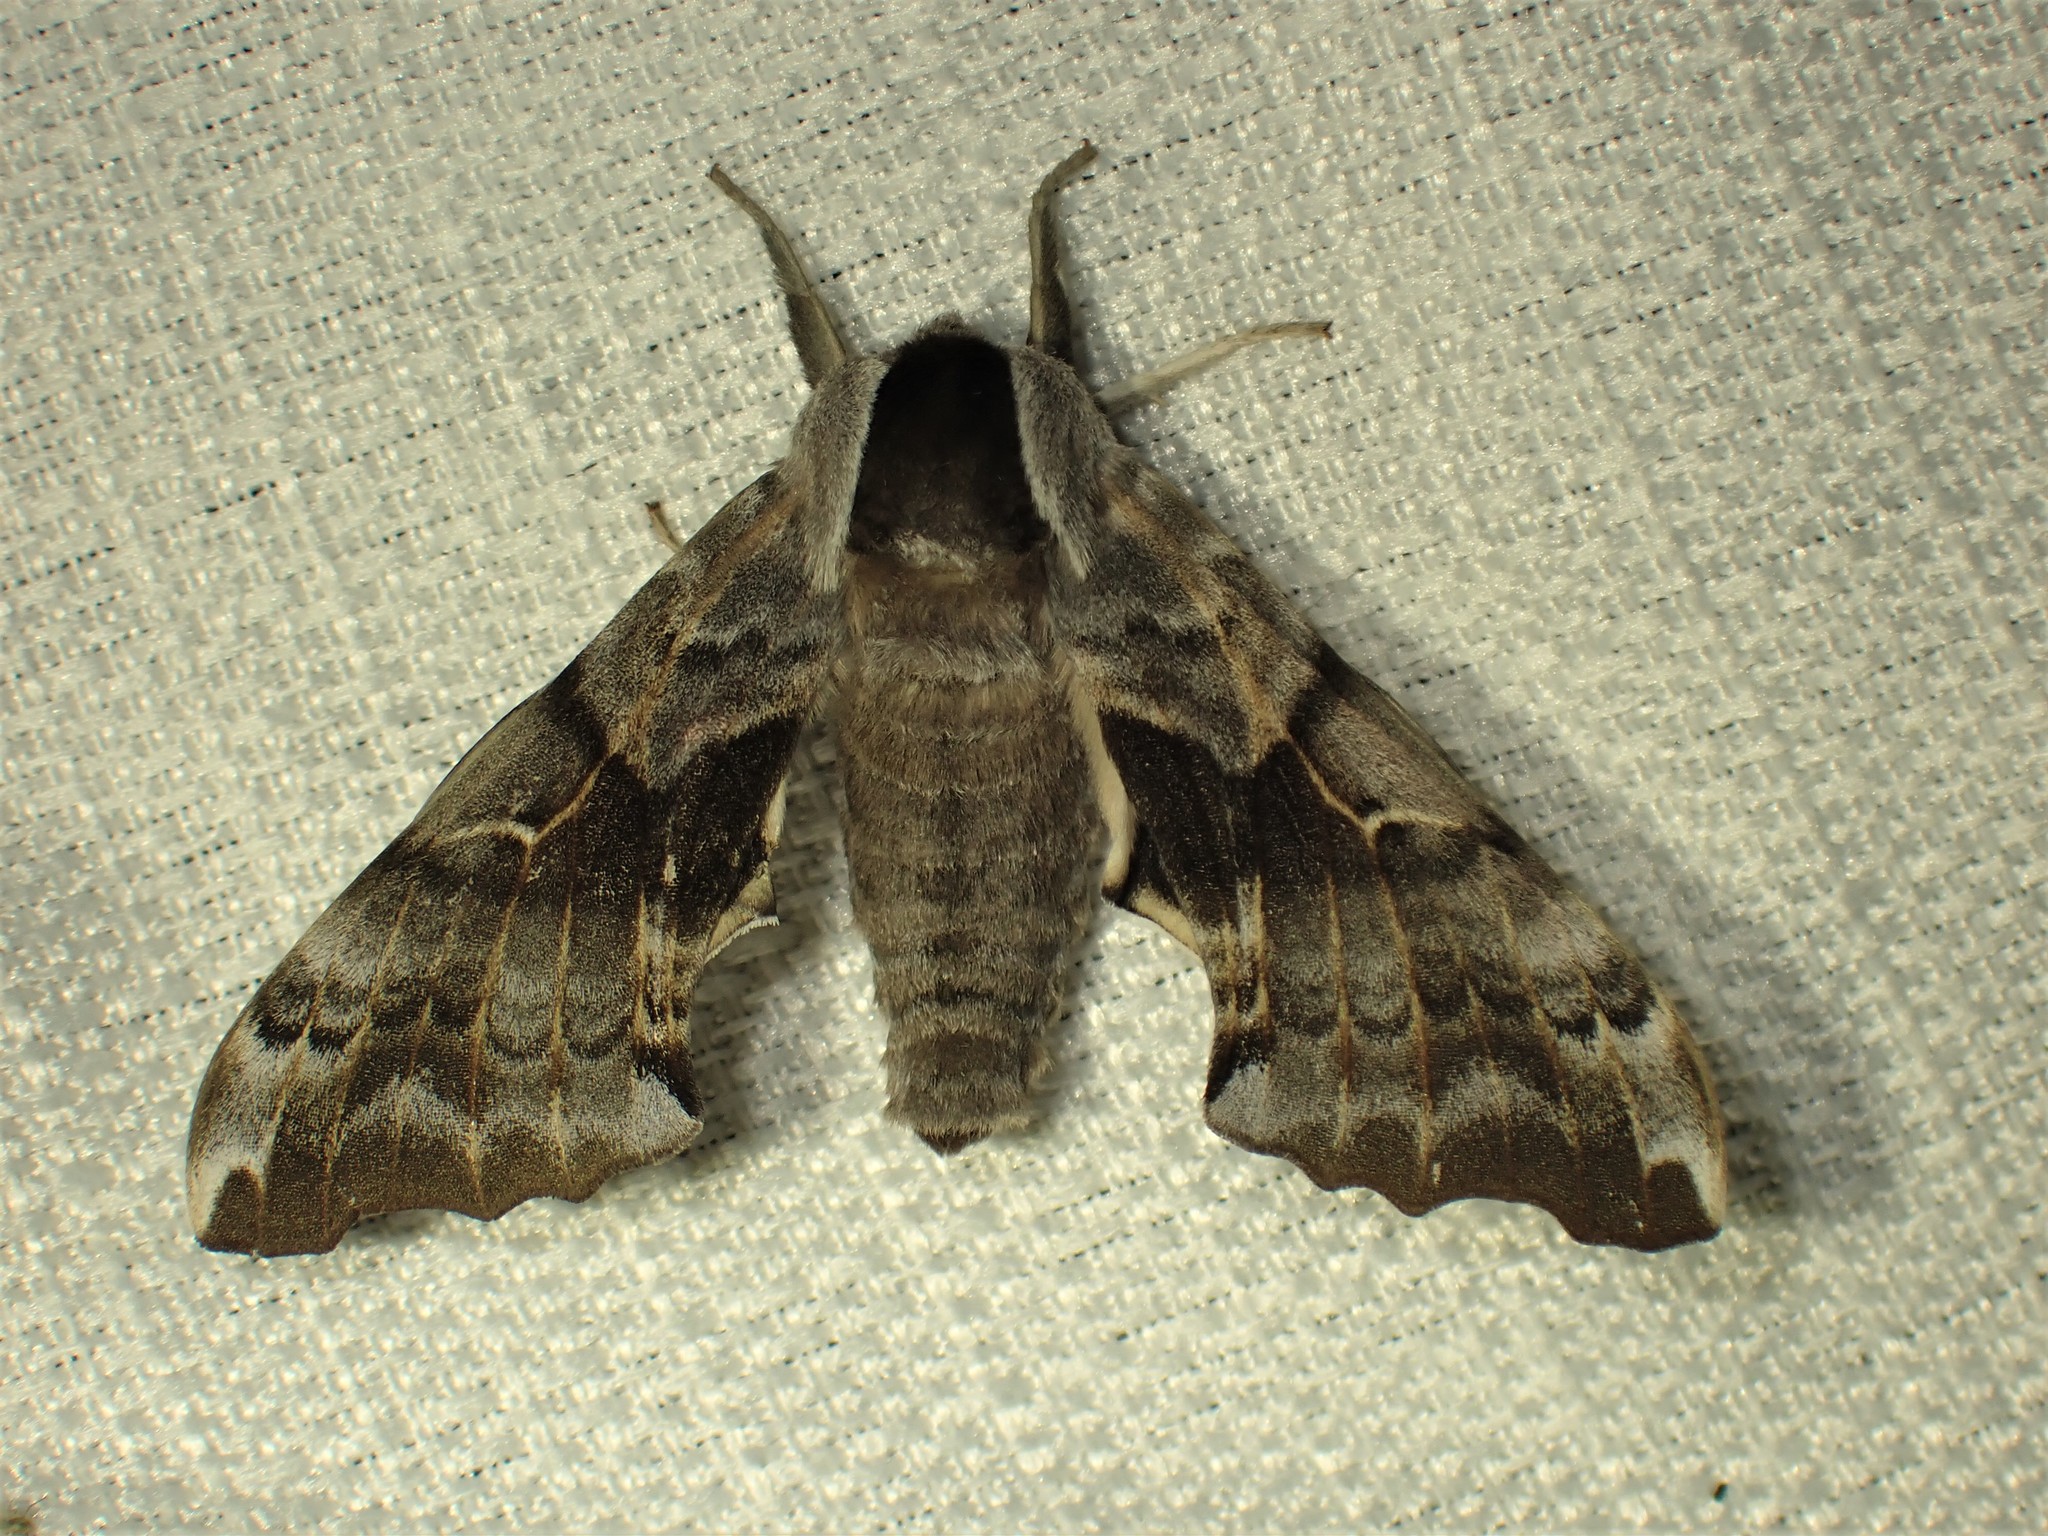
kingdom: Animalia
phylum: Arthropoda
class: Insecta
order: Lepidoptera
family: Sphingidae
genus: Smerinthus
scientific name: Smerinthus cerisyi
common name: Cerisy's sphinx moth
